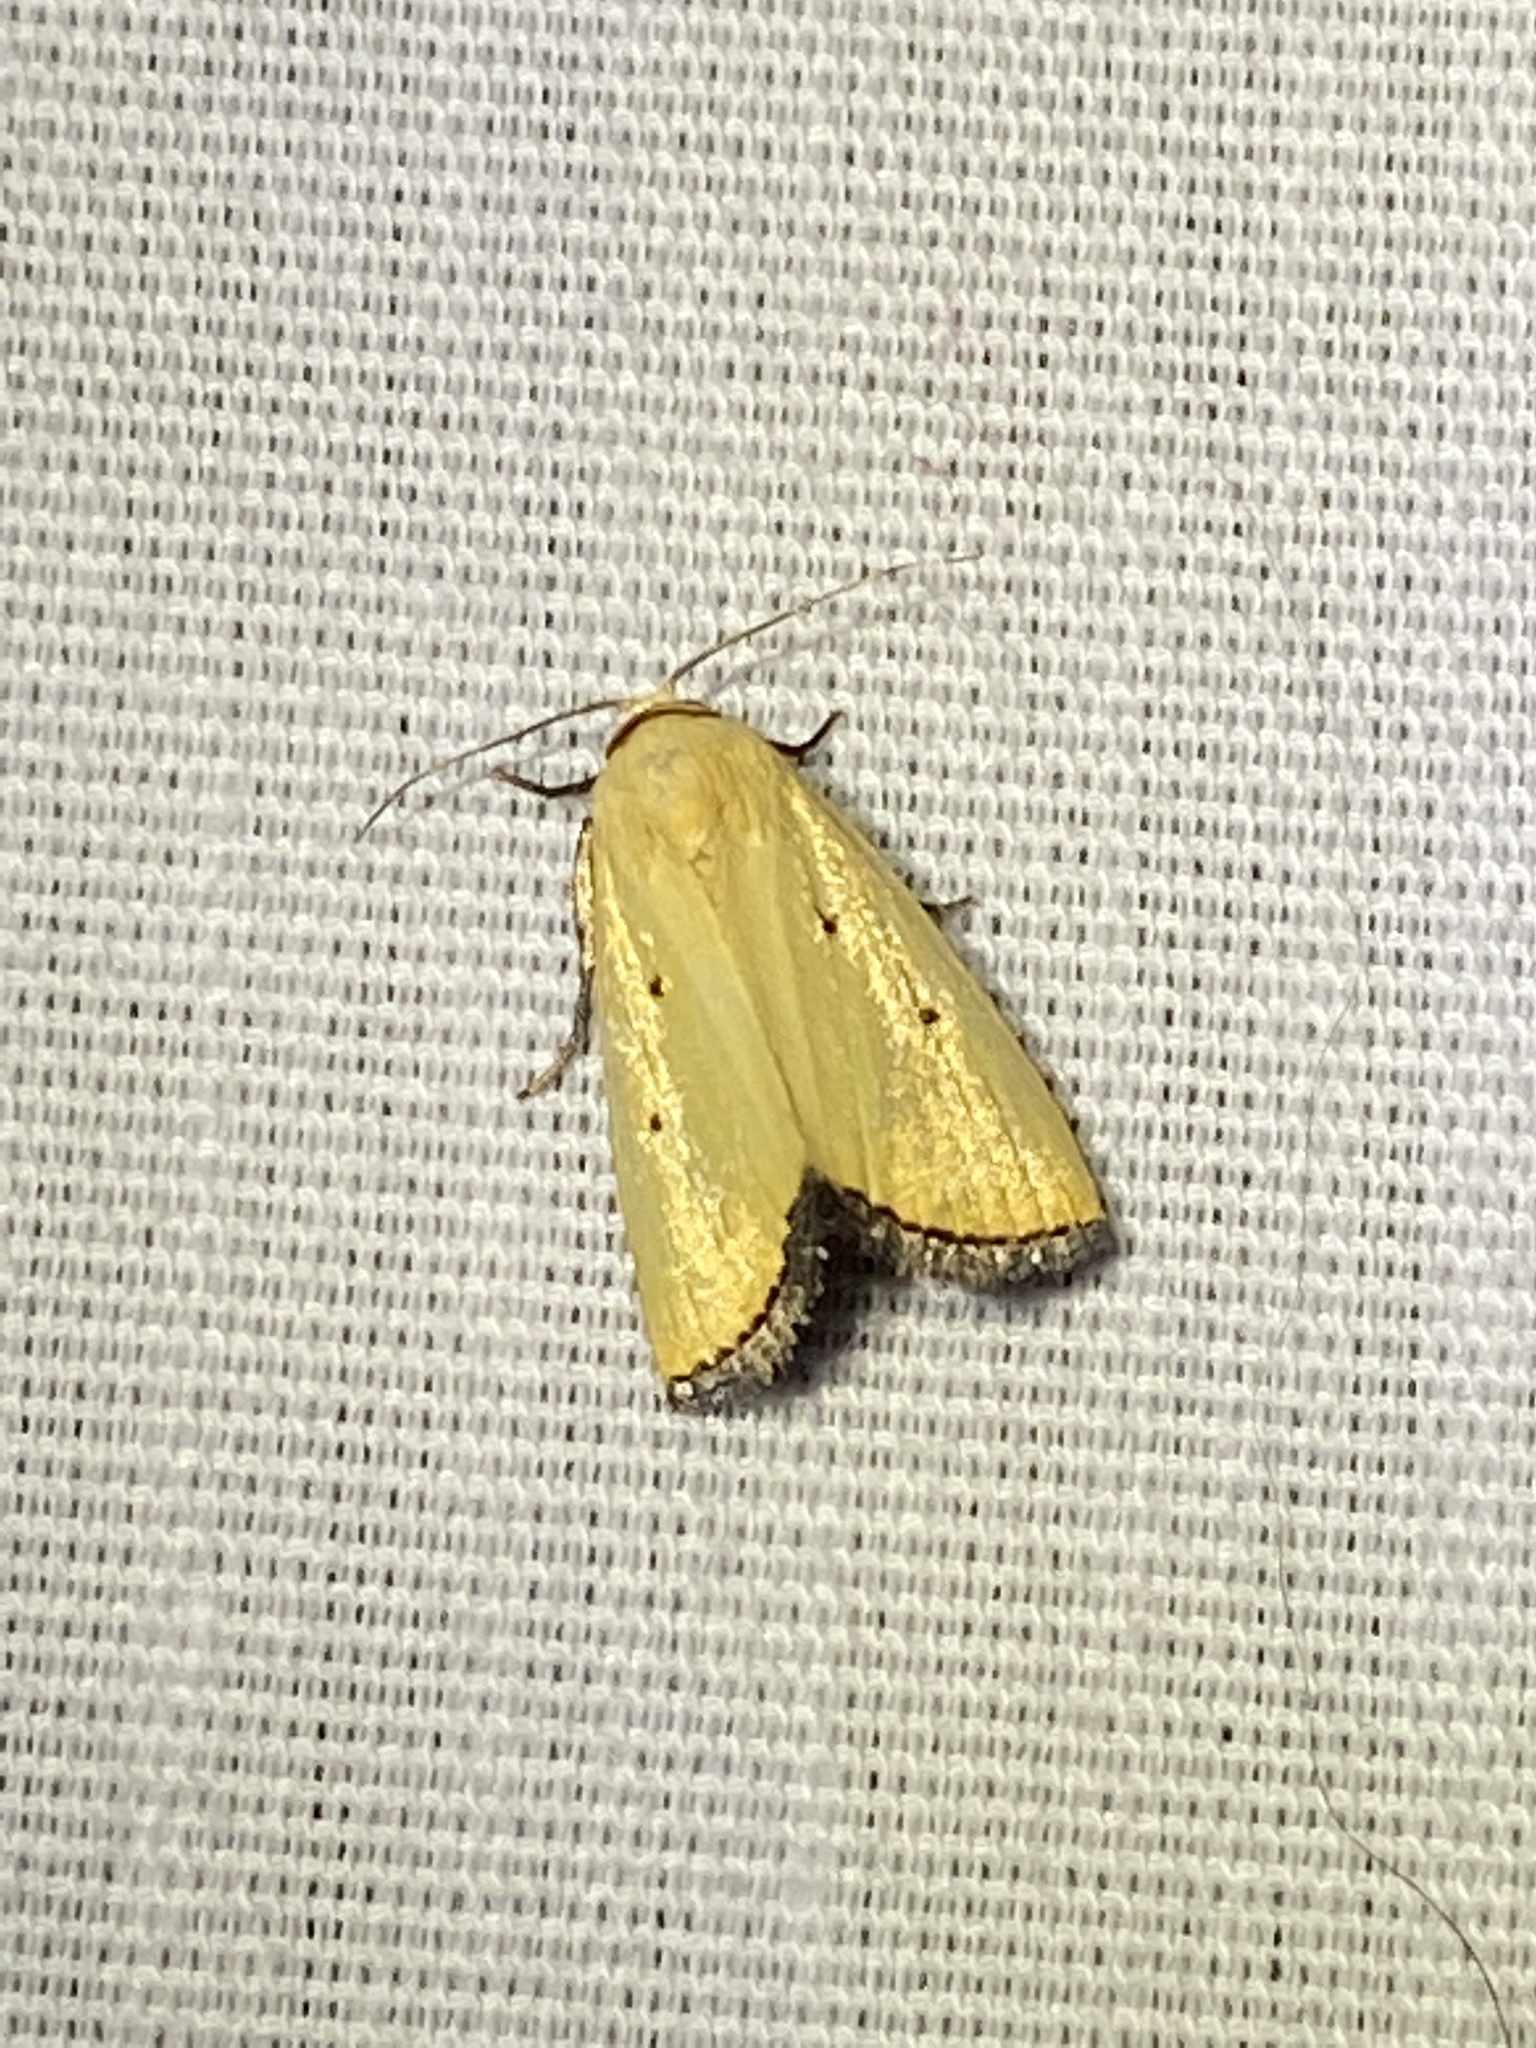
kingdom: Animalia
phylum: Arthropoda
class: Insecta
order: Lepidoptera
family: Noctuidae
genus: Marimatha
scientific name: Marimatha nigrofimbria
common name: Black-bordered lemon moth
